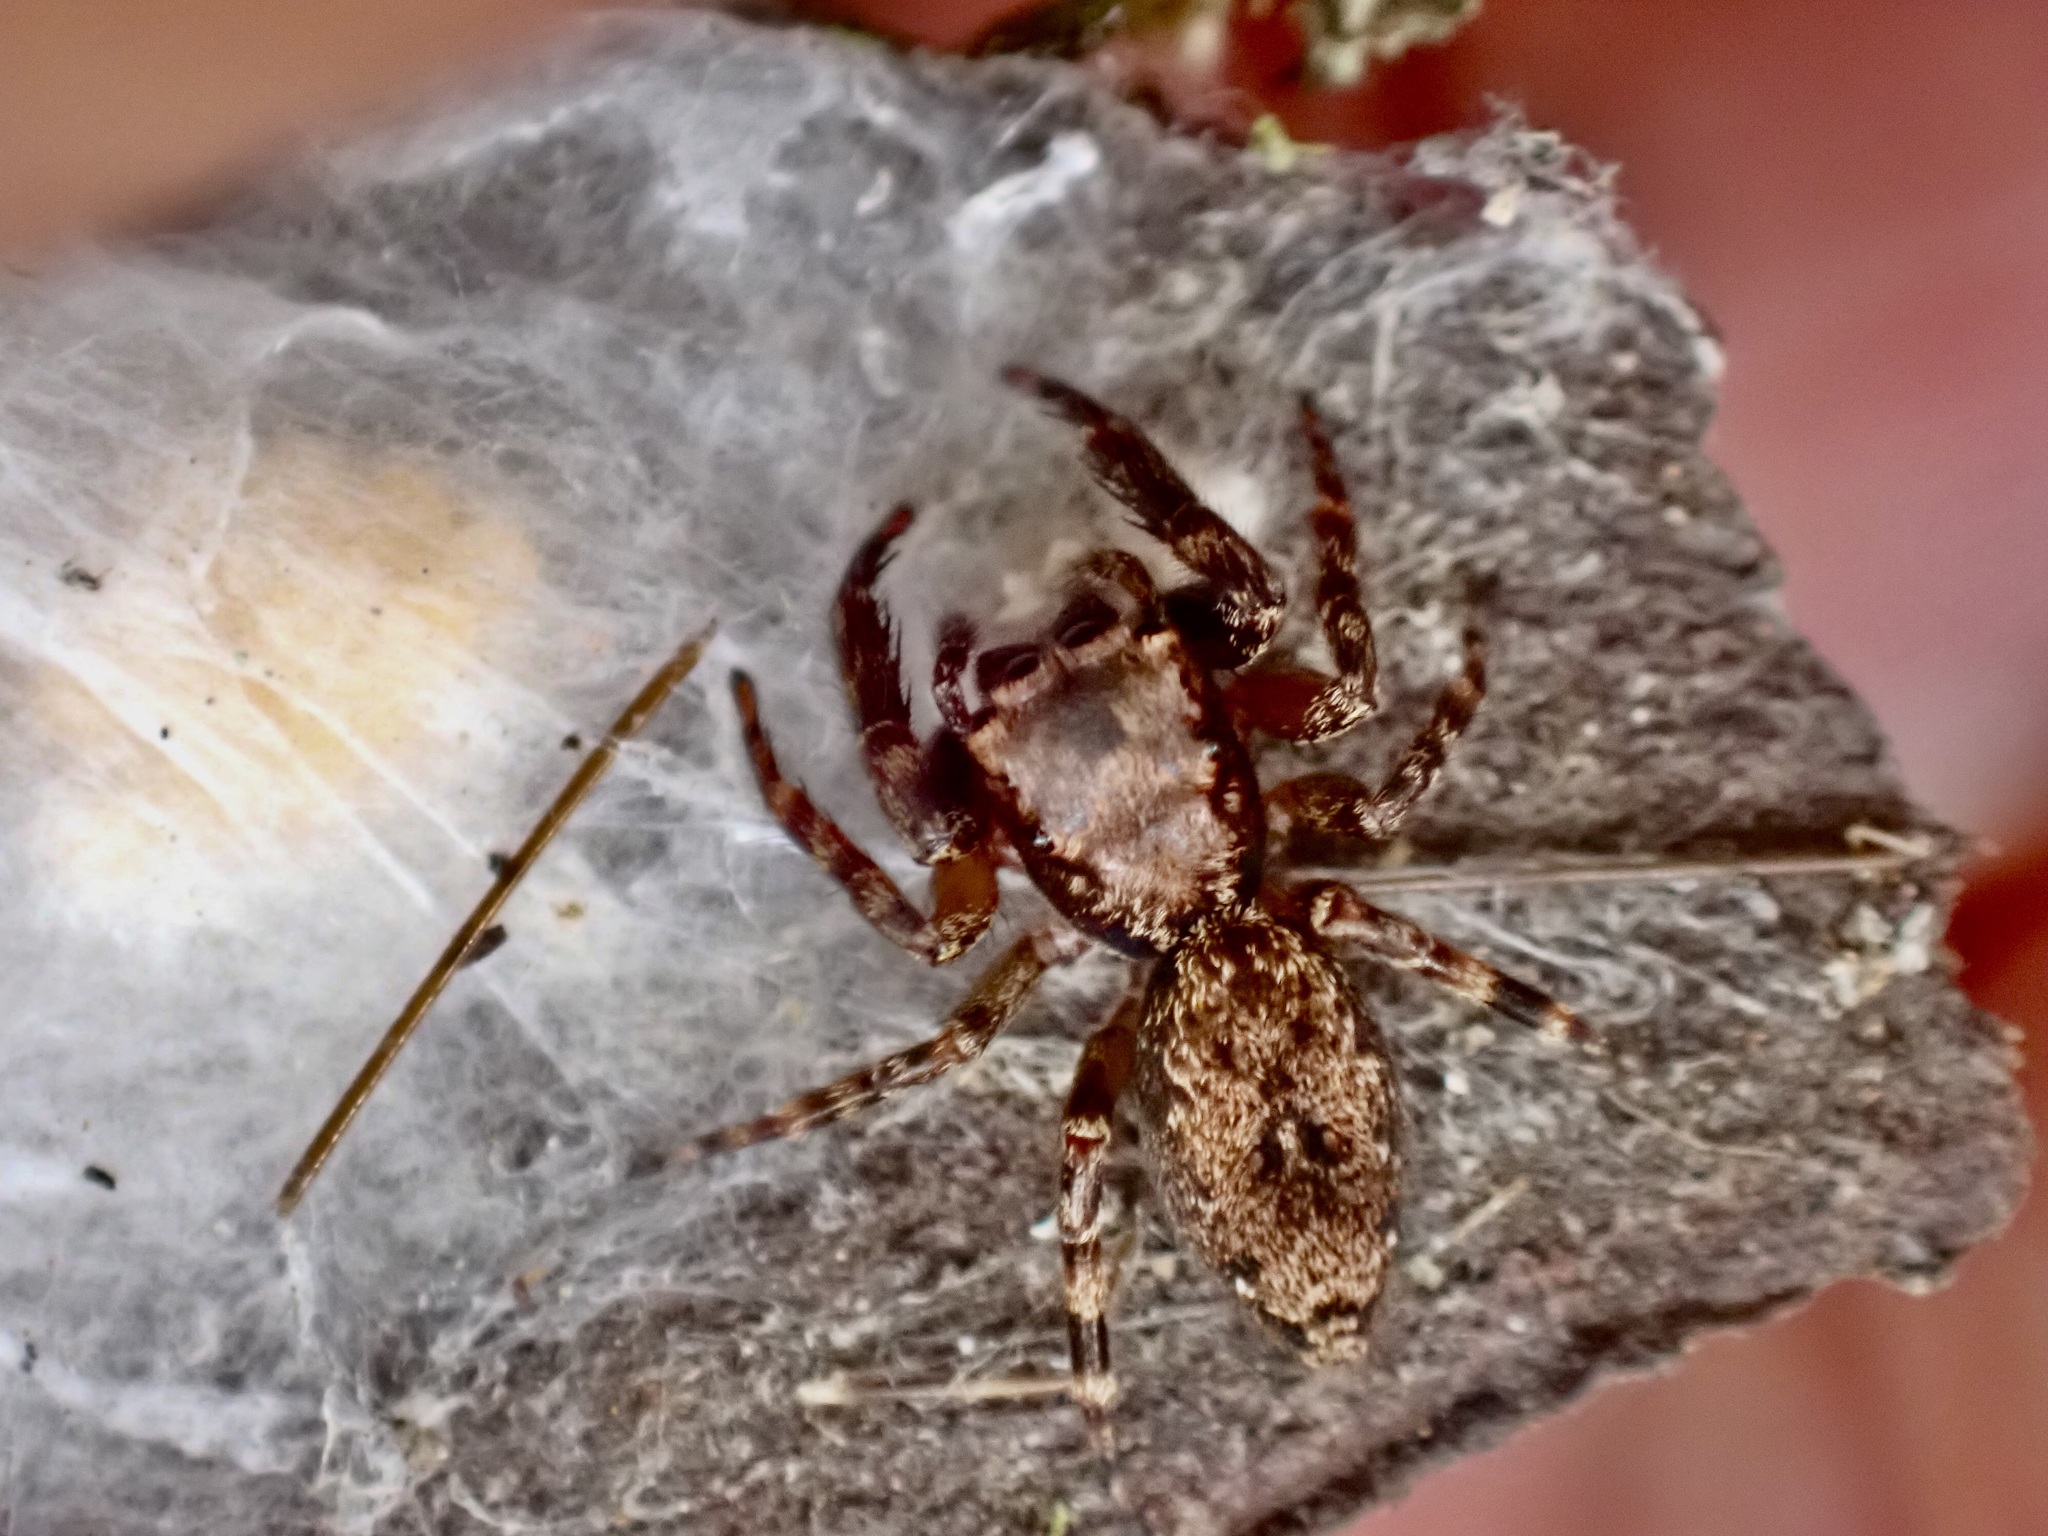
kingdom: Animalia
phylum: Arthropoda
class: Arachnida
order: Araneae
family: Salticidae
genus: Trite
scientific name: Trite auricoma
